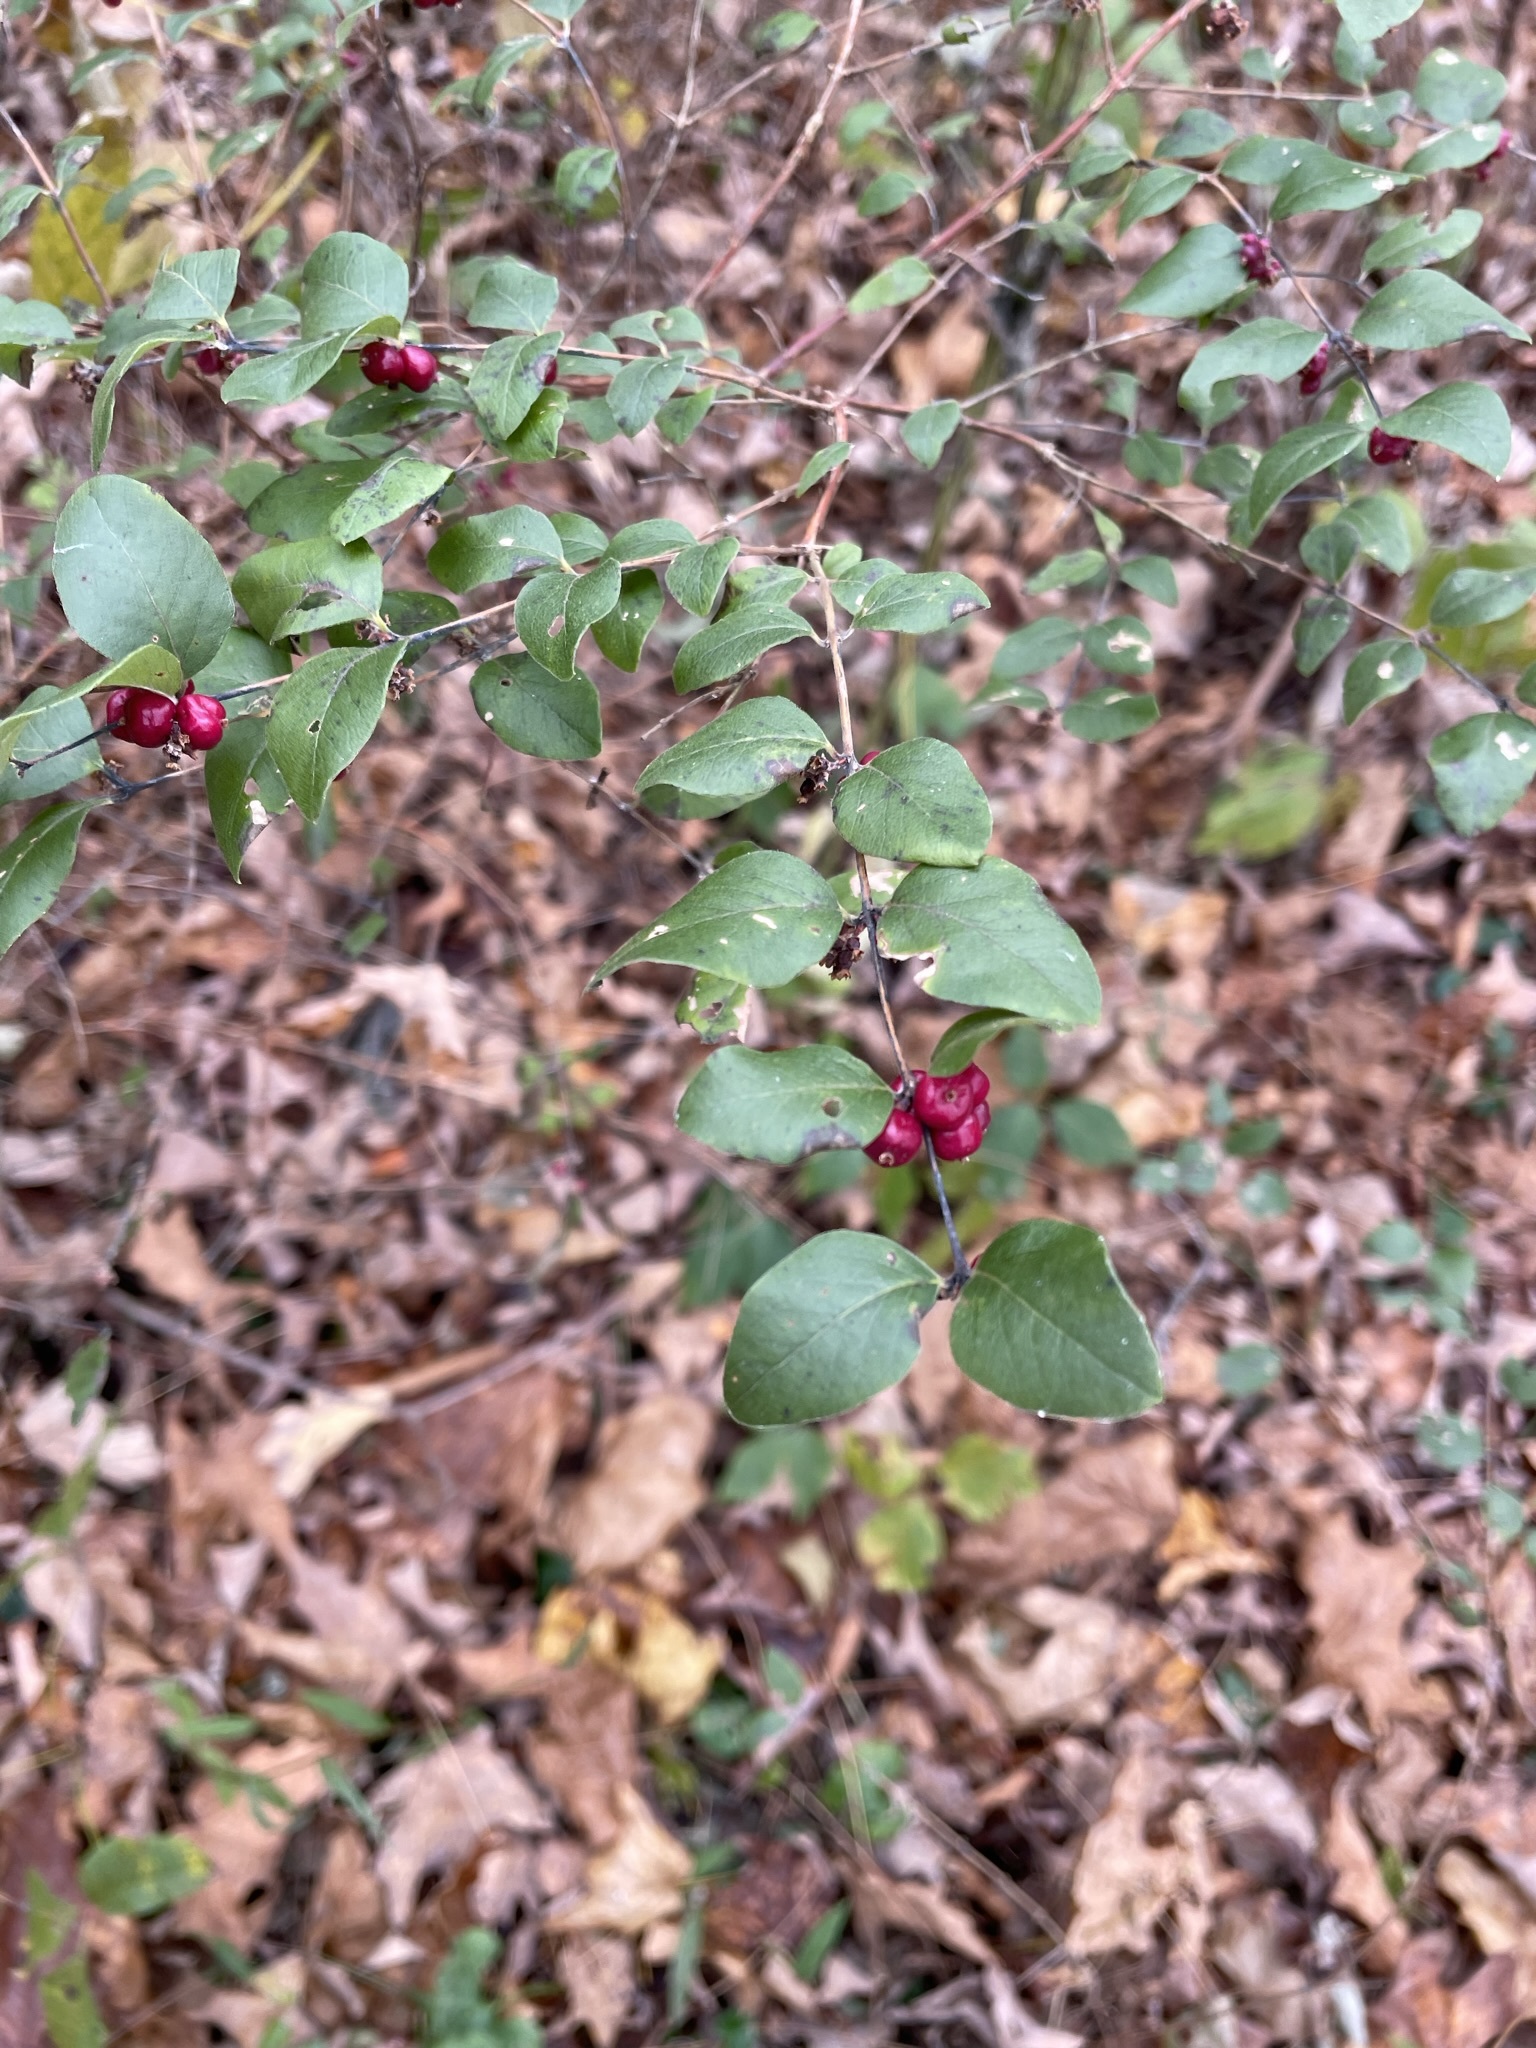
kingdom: Plantae
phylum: Tracheophyta
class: Magnoliopsida
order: Dipsacales
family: Caprifoliaceae
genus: Symphoricarpos
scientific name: Symphoricarpos orbiculatus
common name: Coralberry
